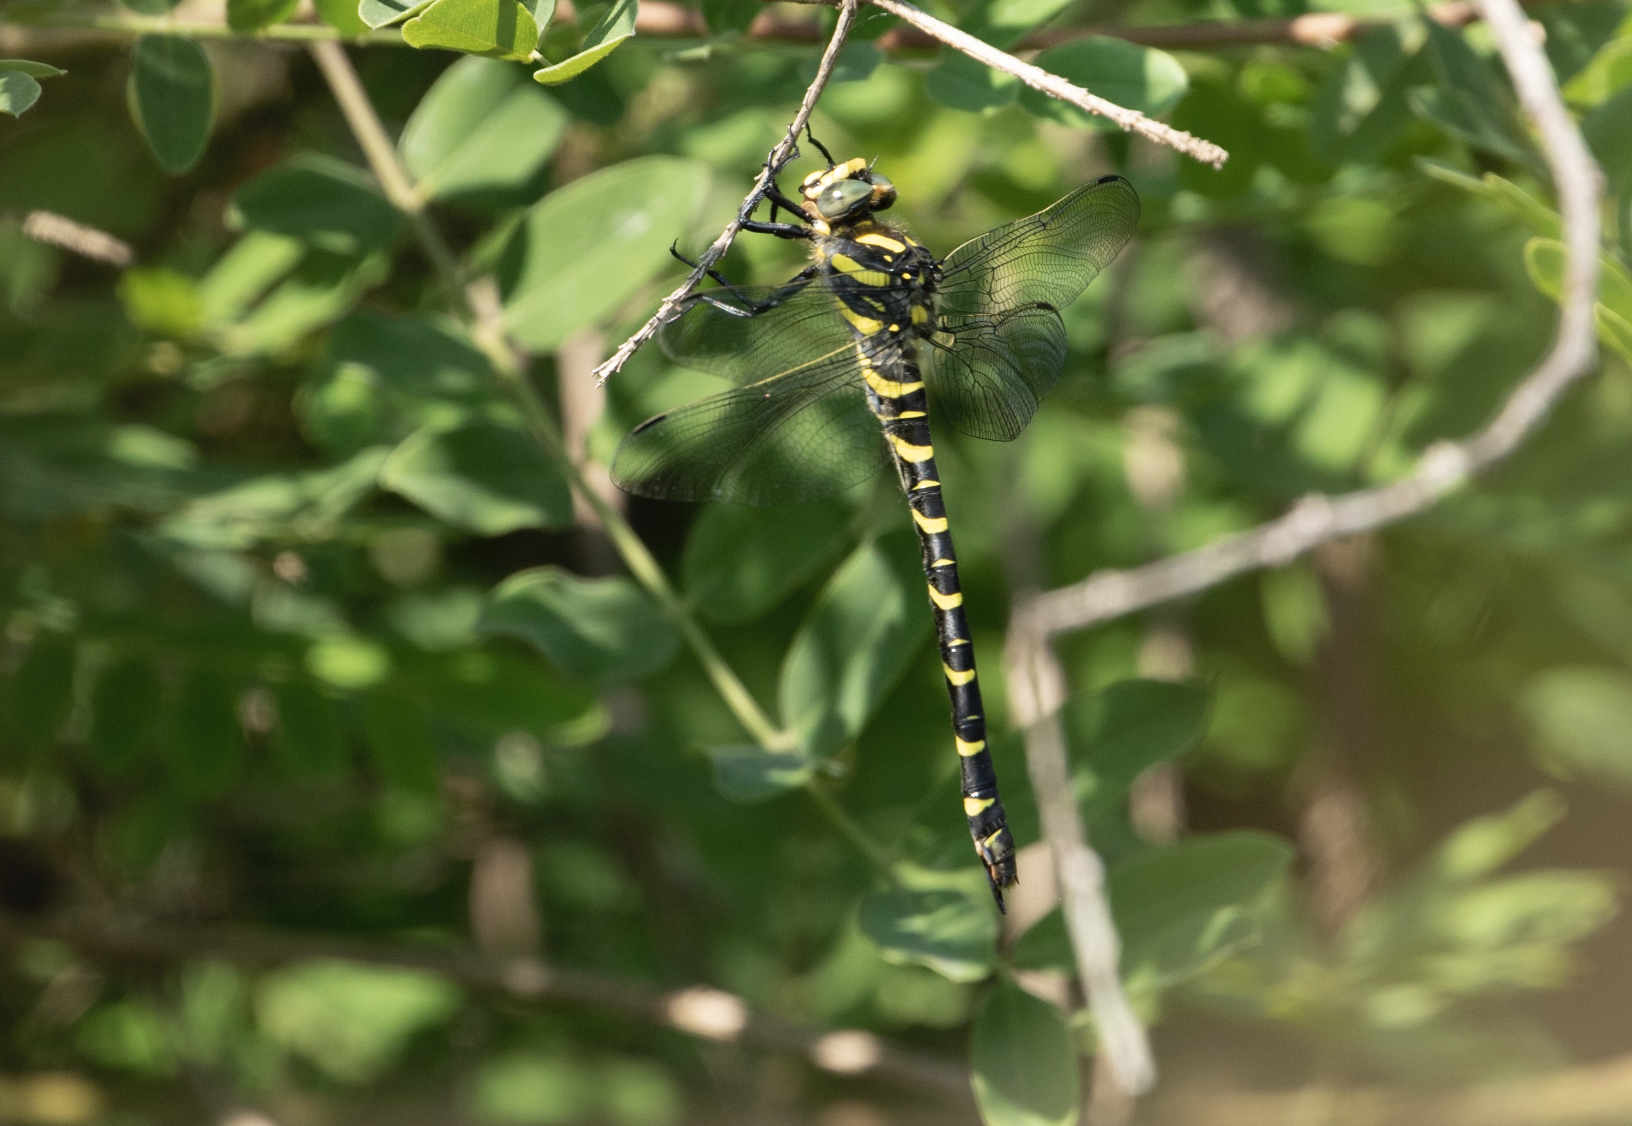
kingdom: Animalia
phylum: Arthropoda
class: Insecta
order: Odonata
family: Cordulegastridae
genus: Cordulegaster
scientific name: Cordulegaster boltonii
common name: Golden-ringed dragonfly
